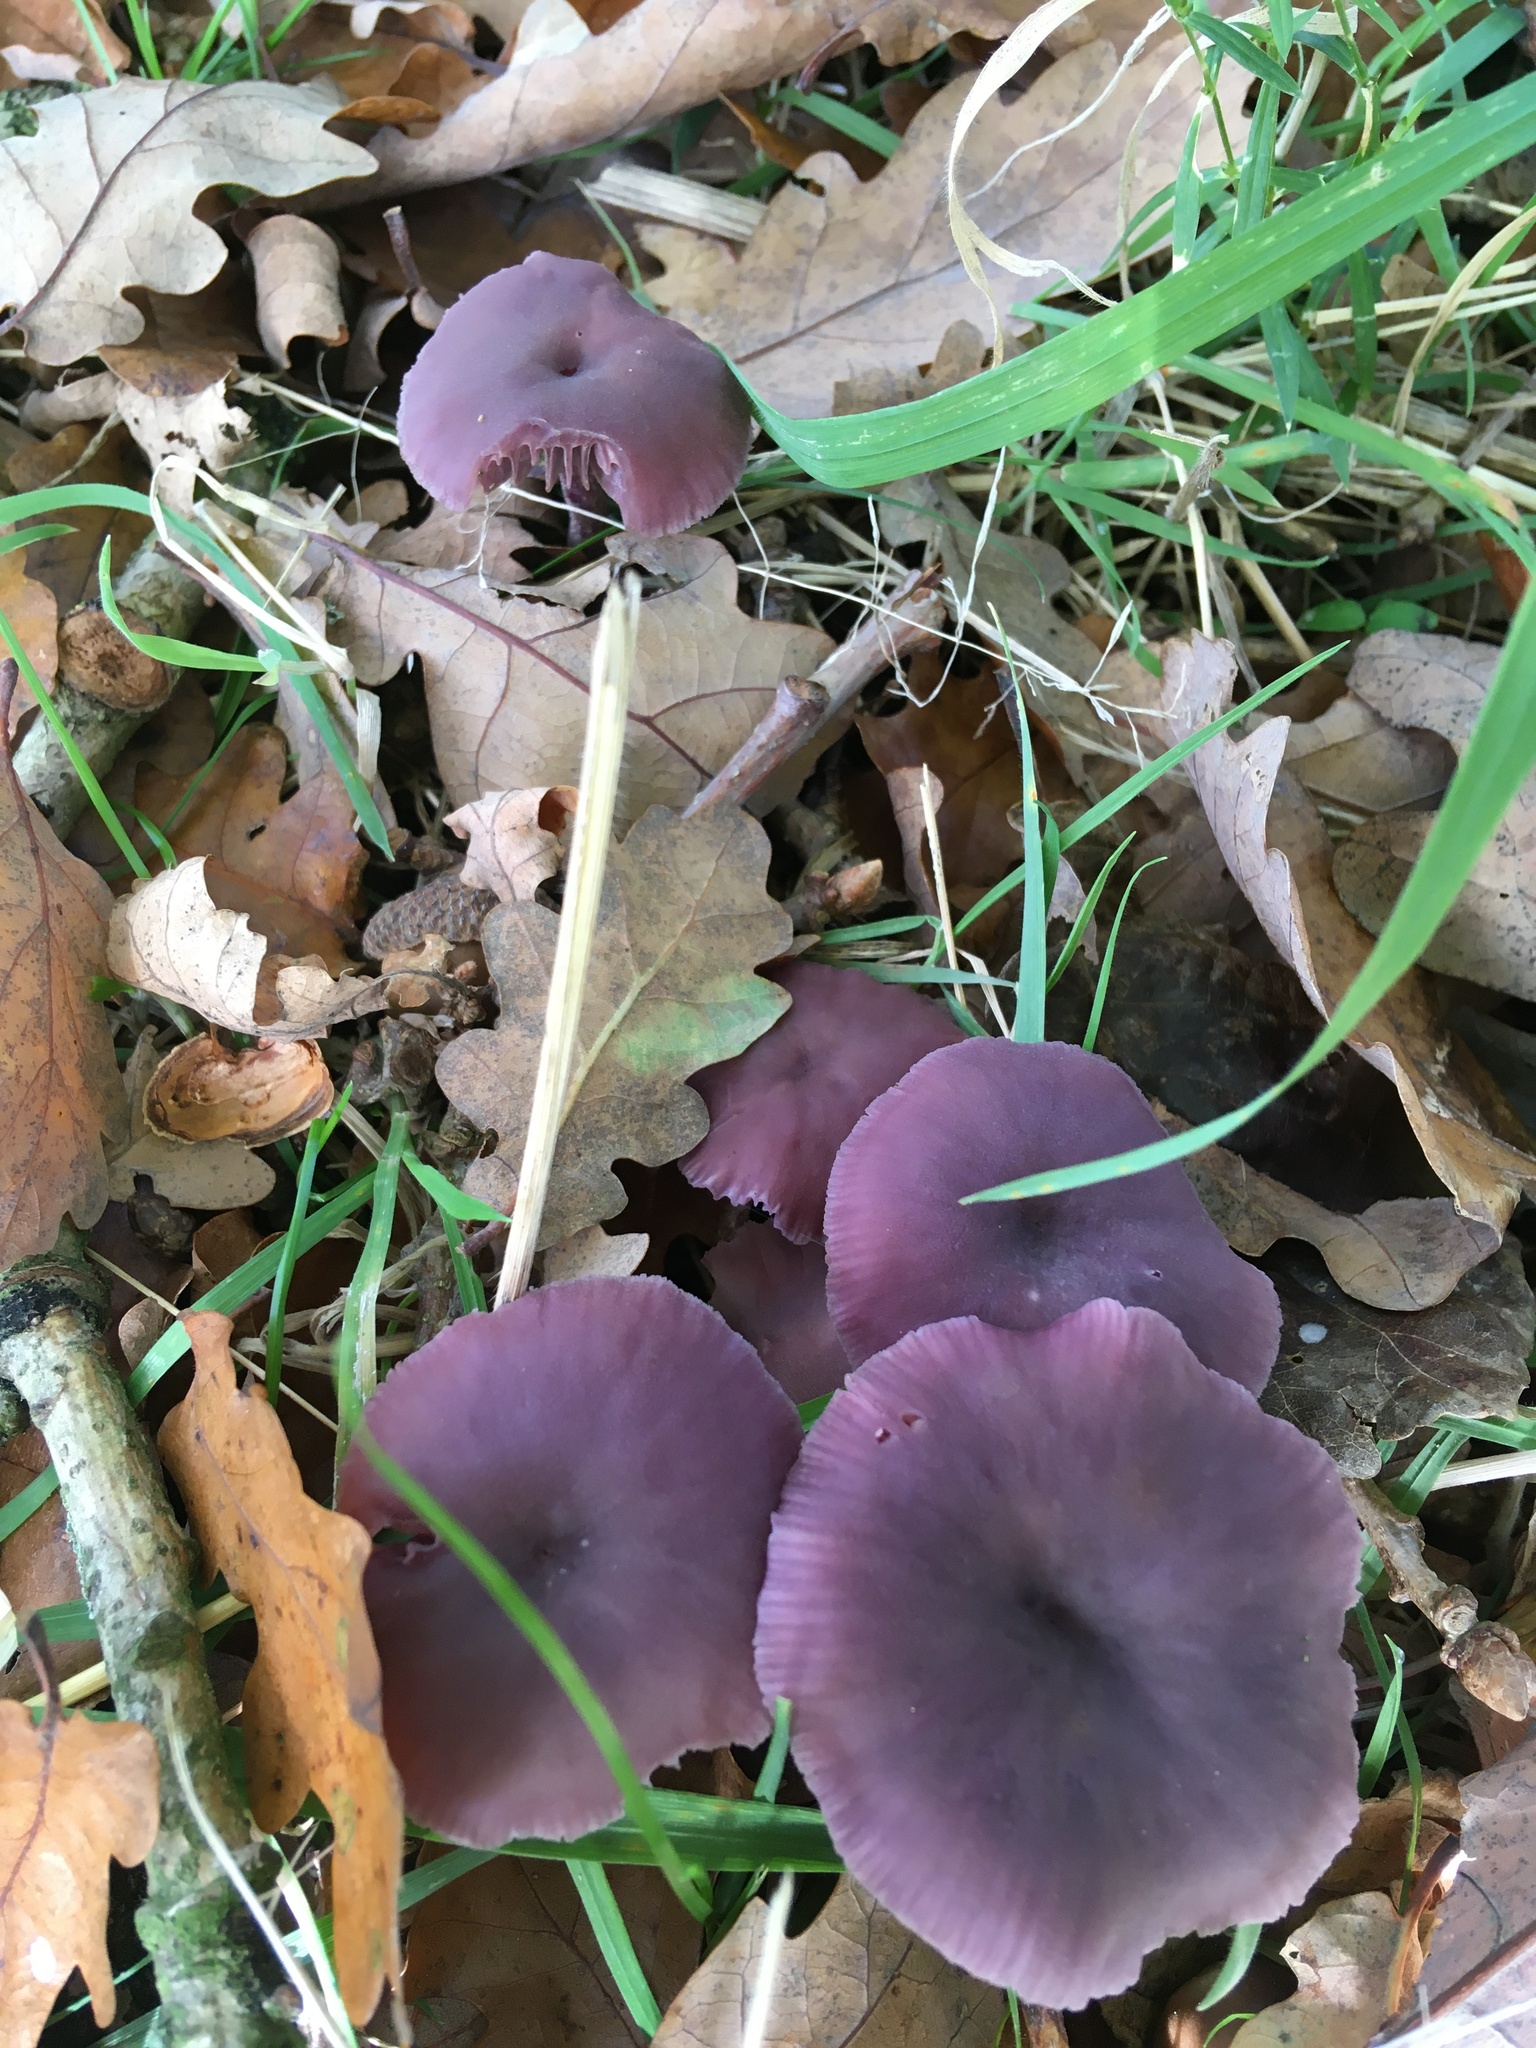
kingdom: Fungi
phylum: Basidiomycota
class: Agaricomycetes
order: Agaricales
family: Hydnangiaceae
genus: Laccaria
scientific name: Laccaria amethystina
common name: Amethyst deceiver
